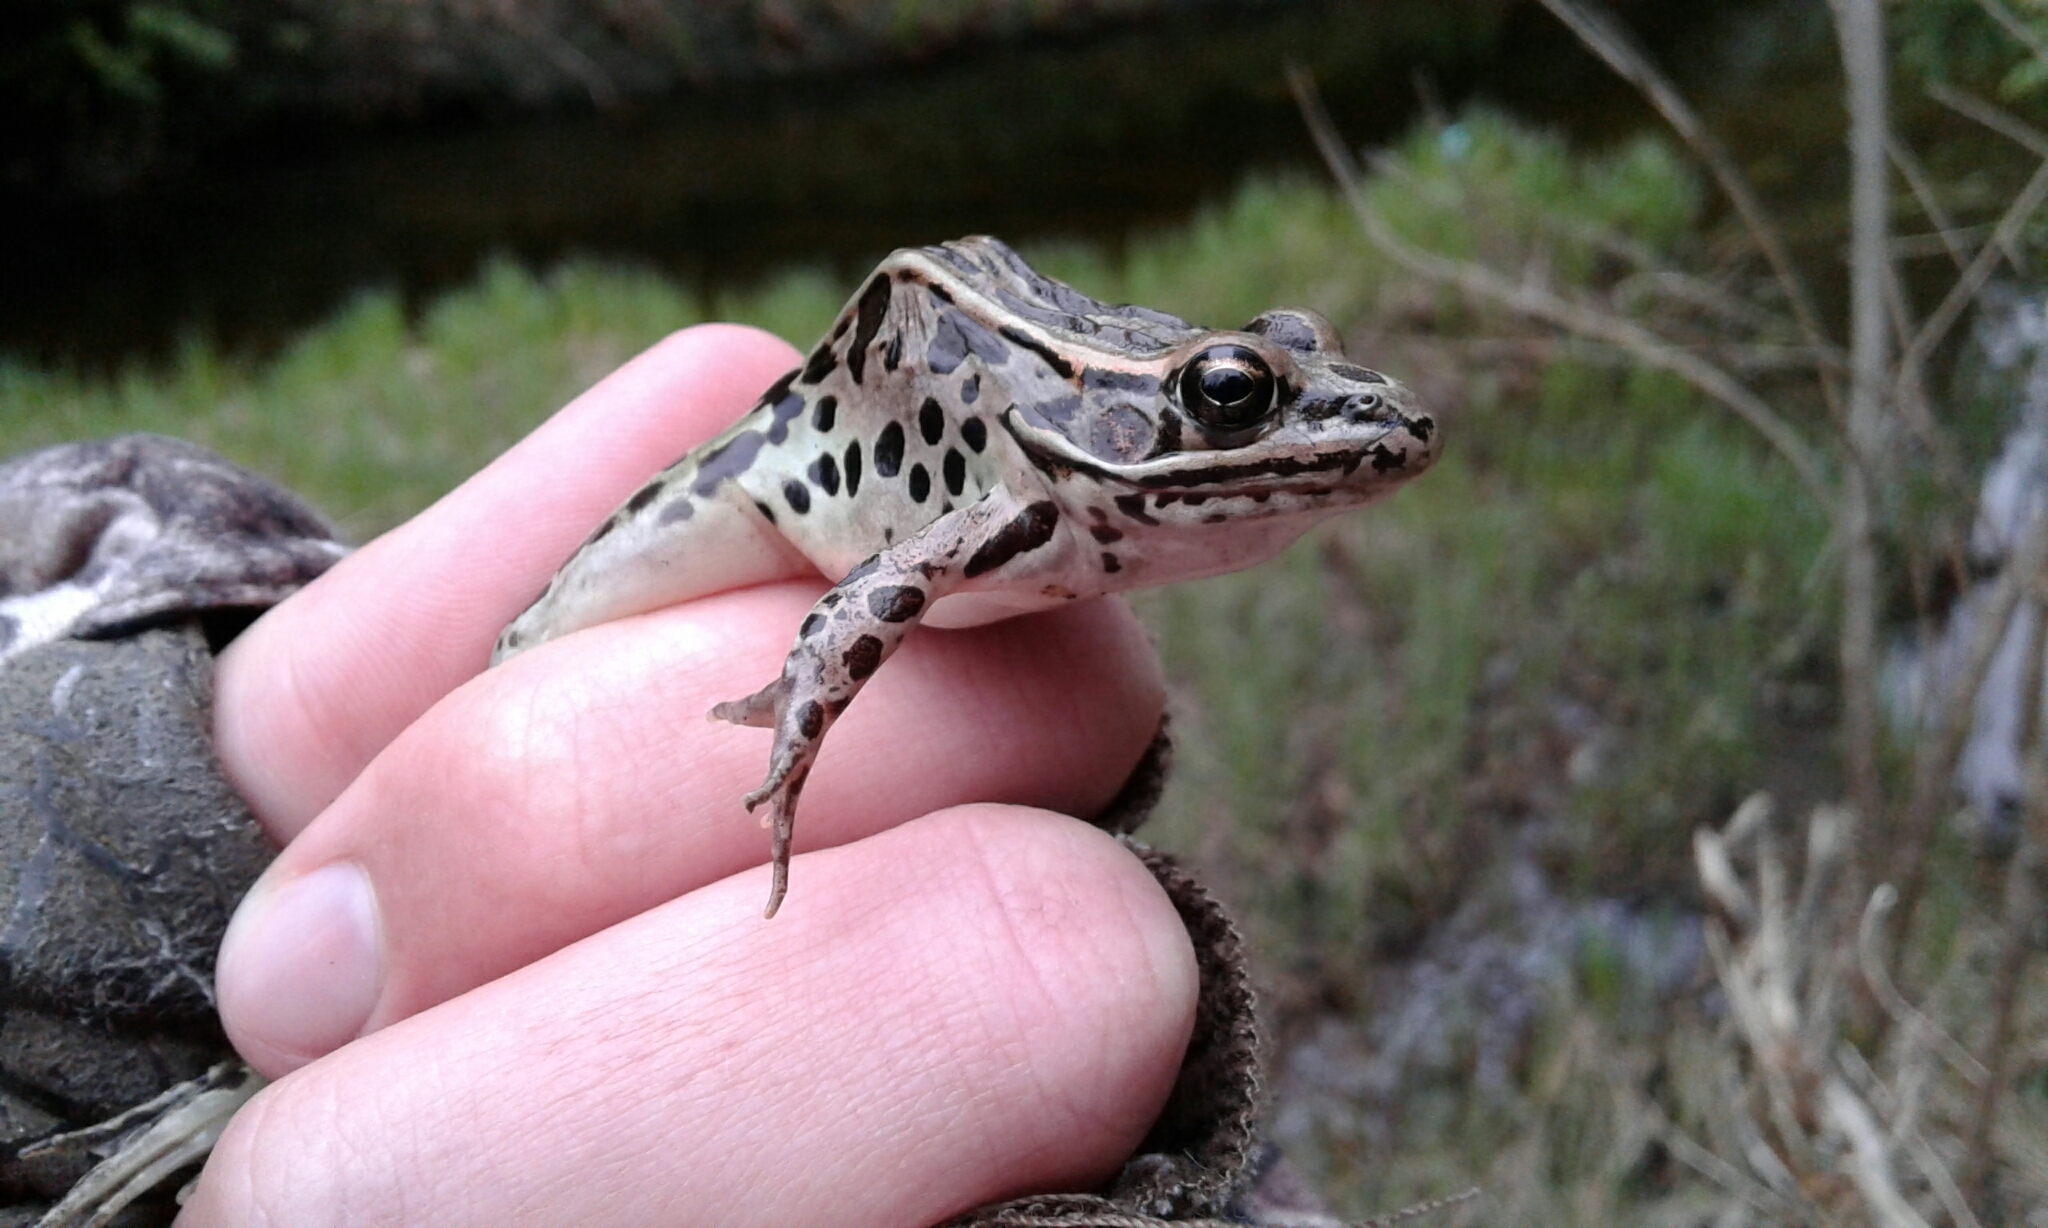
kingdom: Animalia
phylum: Chordata
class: Amphibia
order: Anura
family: Ranidae
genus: Lithobates
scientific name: Lithobates pipiens
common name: Northern leopard frog
